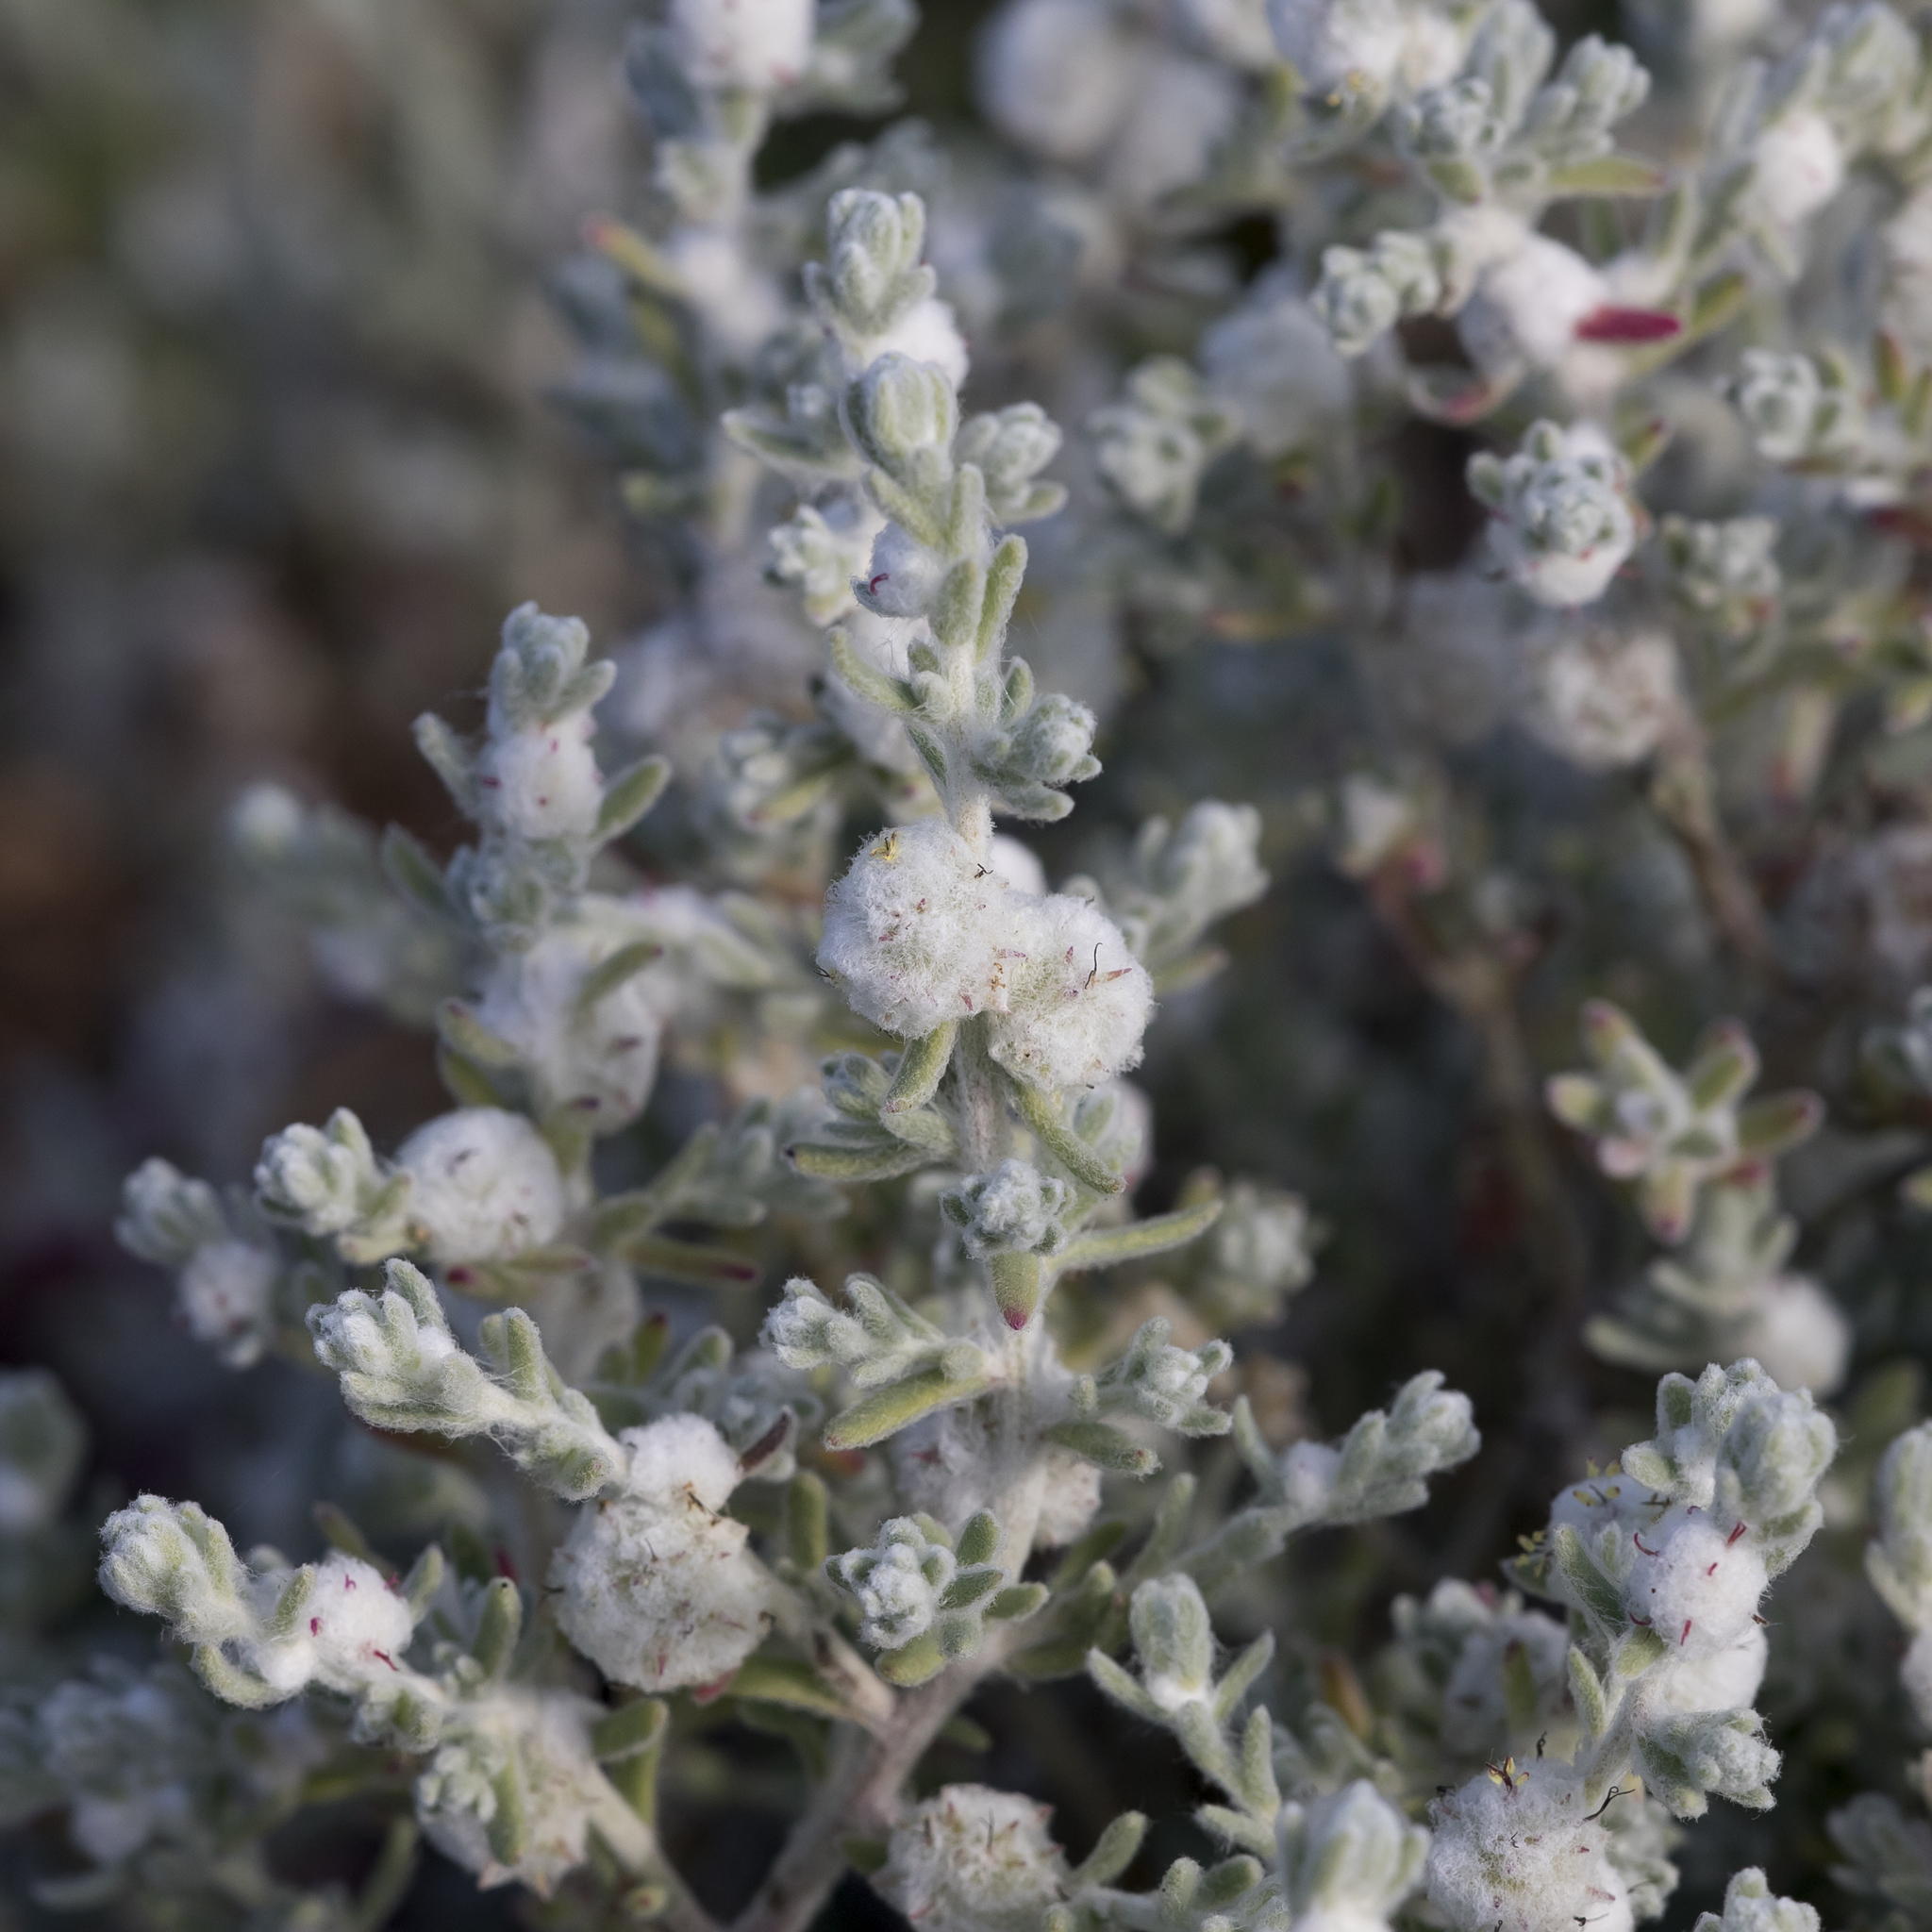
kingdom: Plantae
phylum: Tracheophyta
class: Magnoliopsida
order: Caryophyllales
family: Amaranthaceae
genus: Dissocarpus
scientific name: Dissocarpus paradoxus
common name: Bur-saltbush
